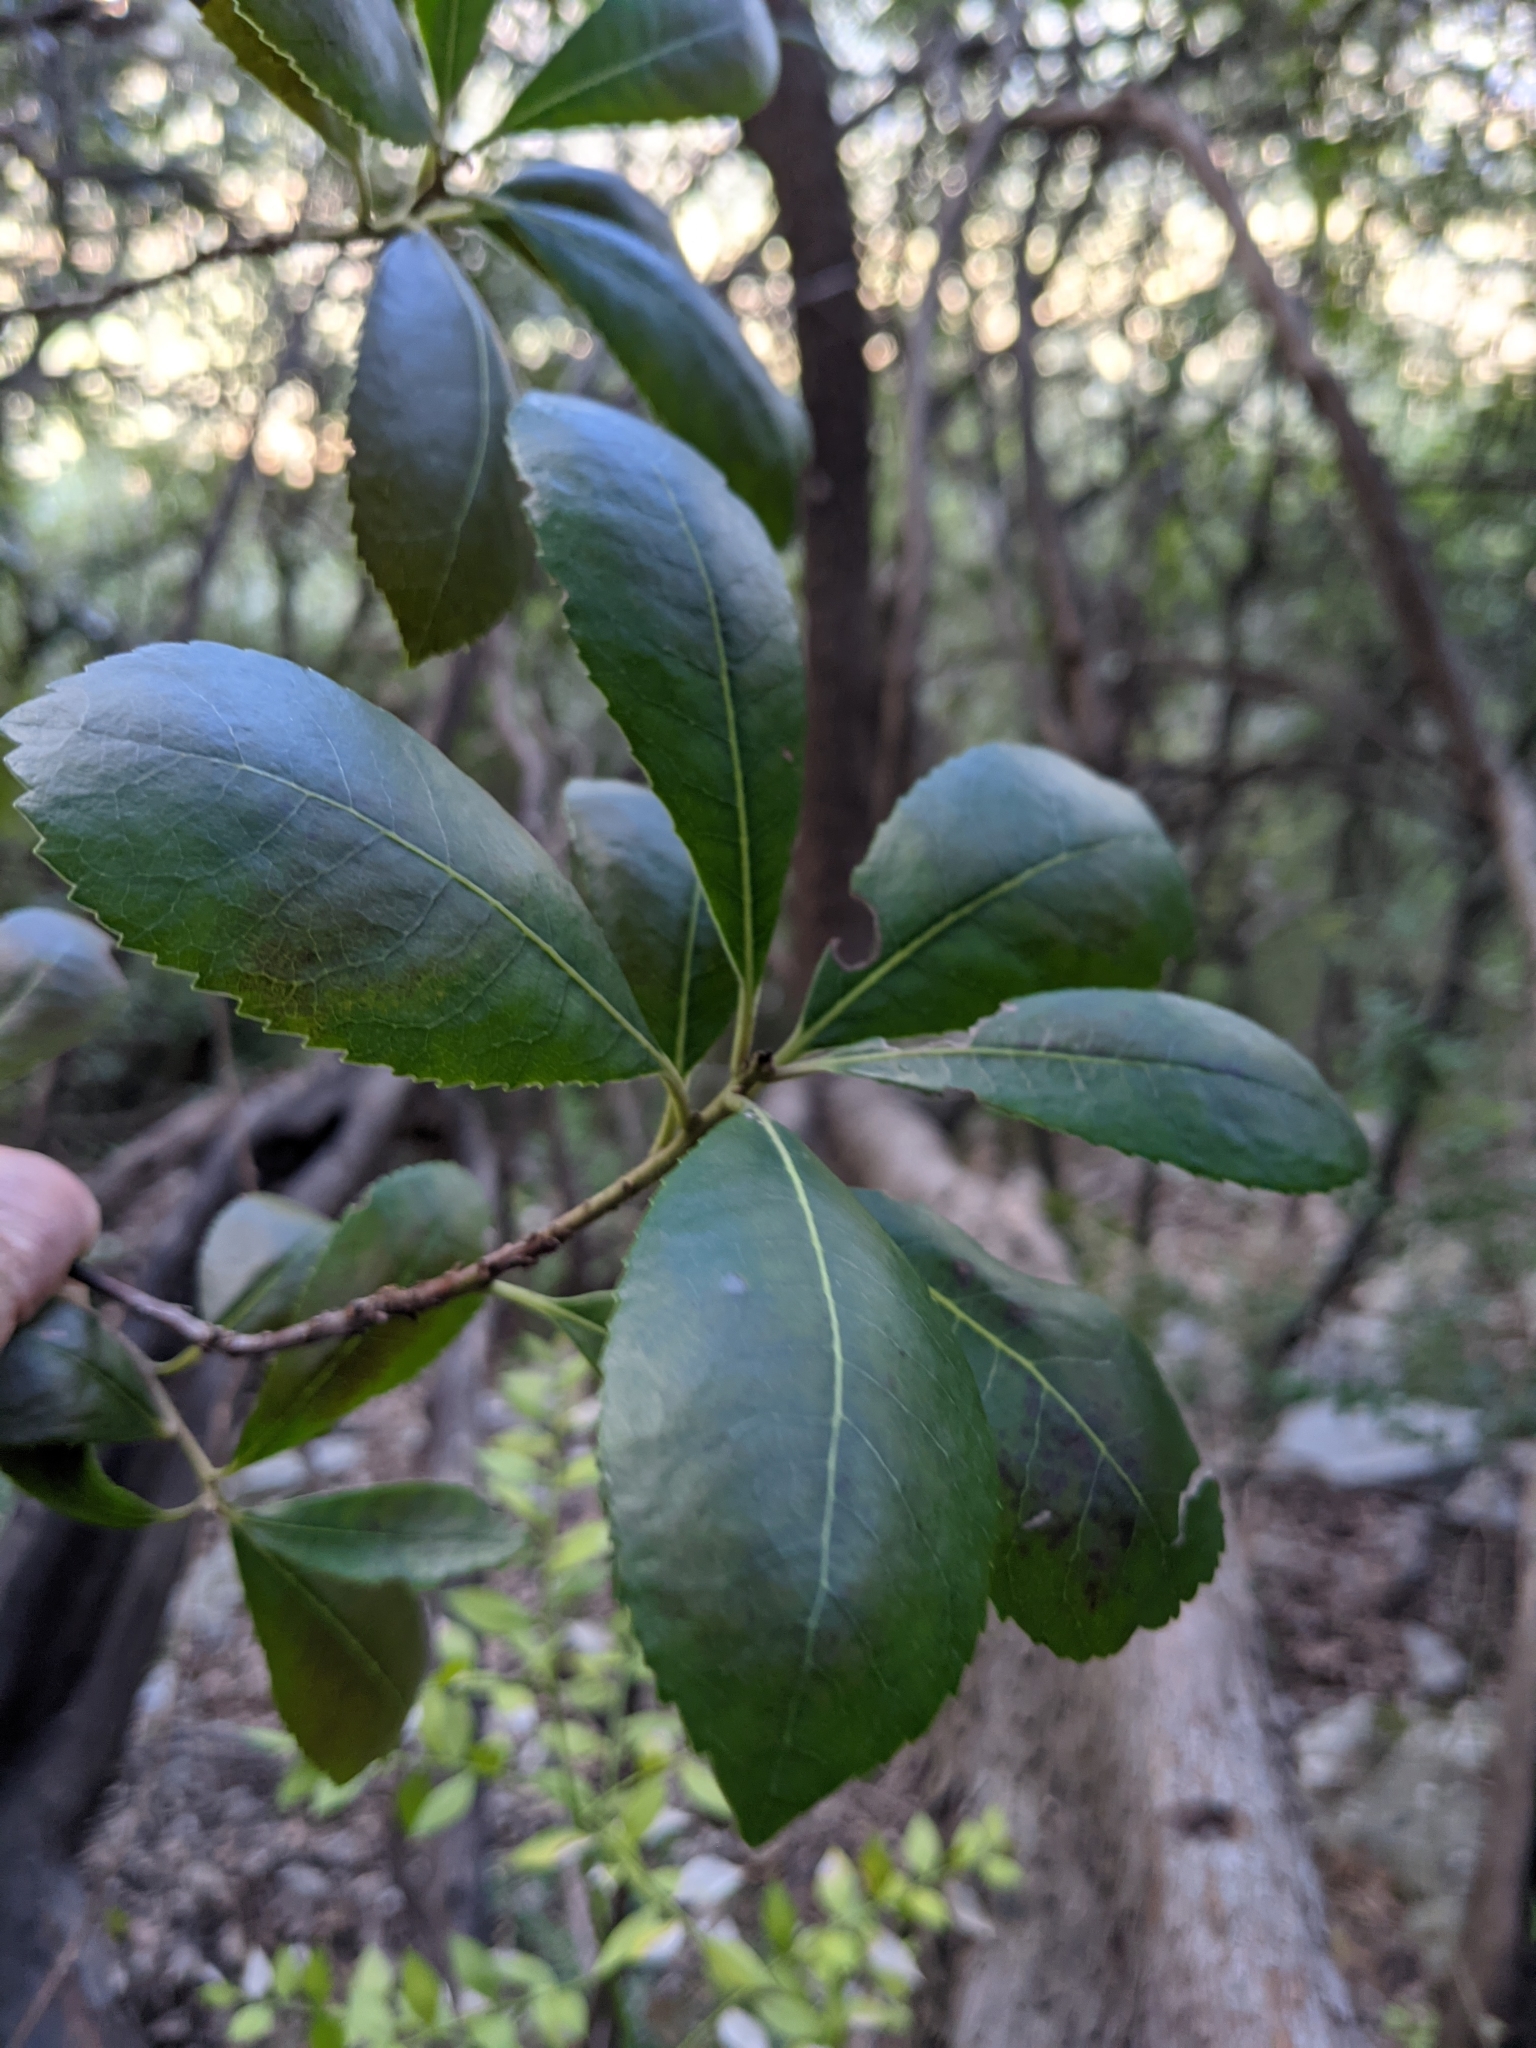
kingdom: Plantae
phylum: Tracheophyta
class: Magnoliopsida
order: Ericales
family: Ericaceae
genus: Arbutus
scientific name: Arbutus unedo
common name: Strawberry-tree
